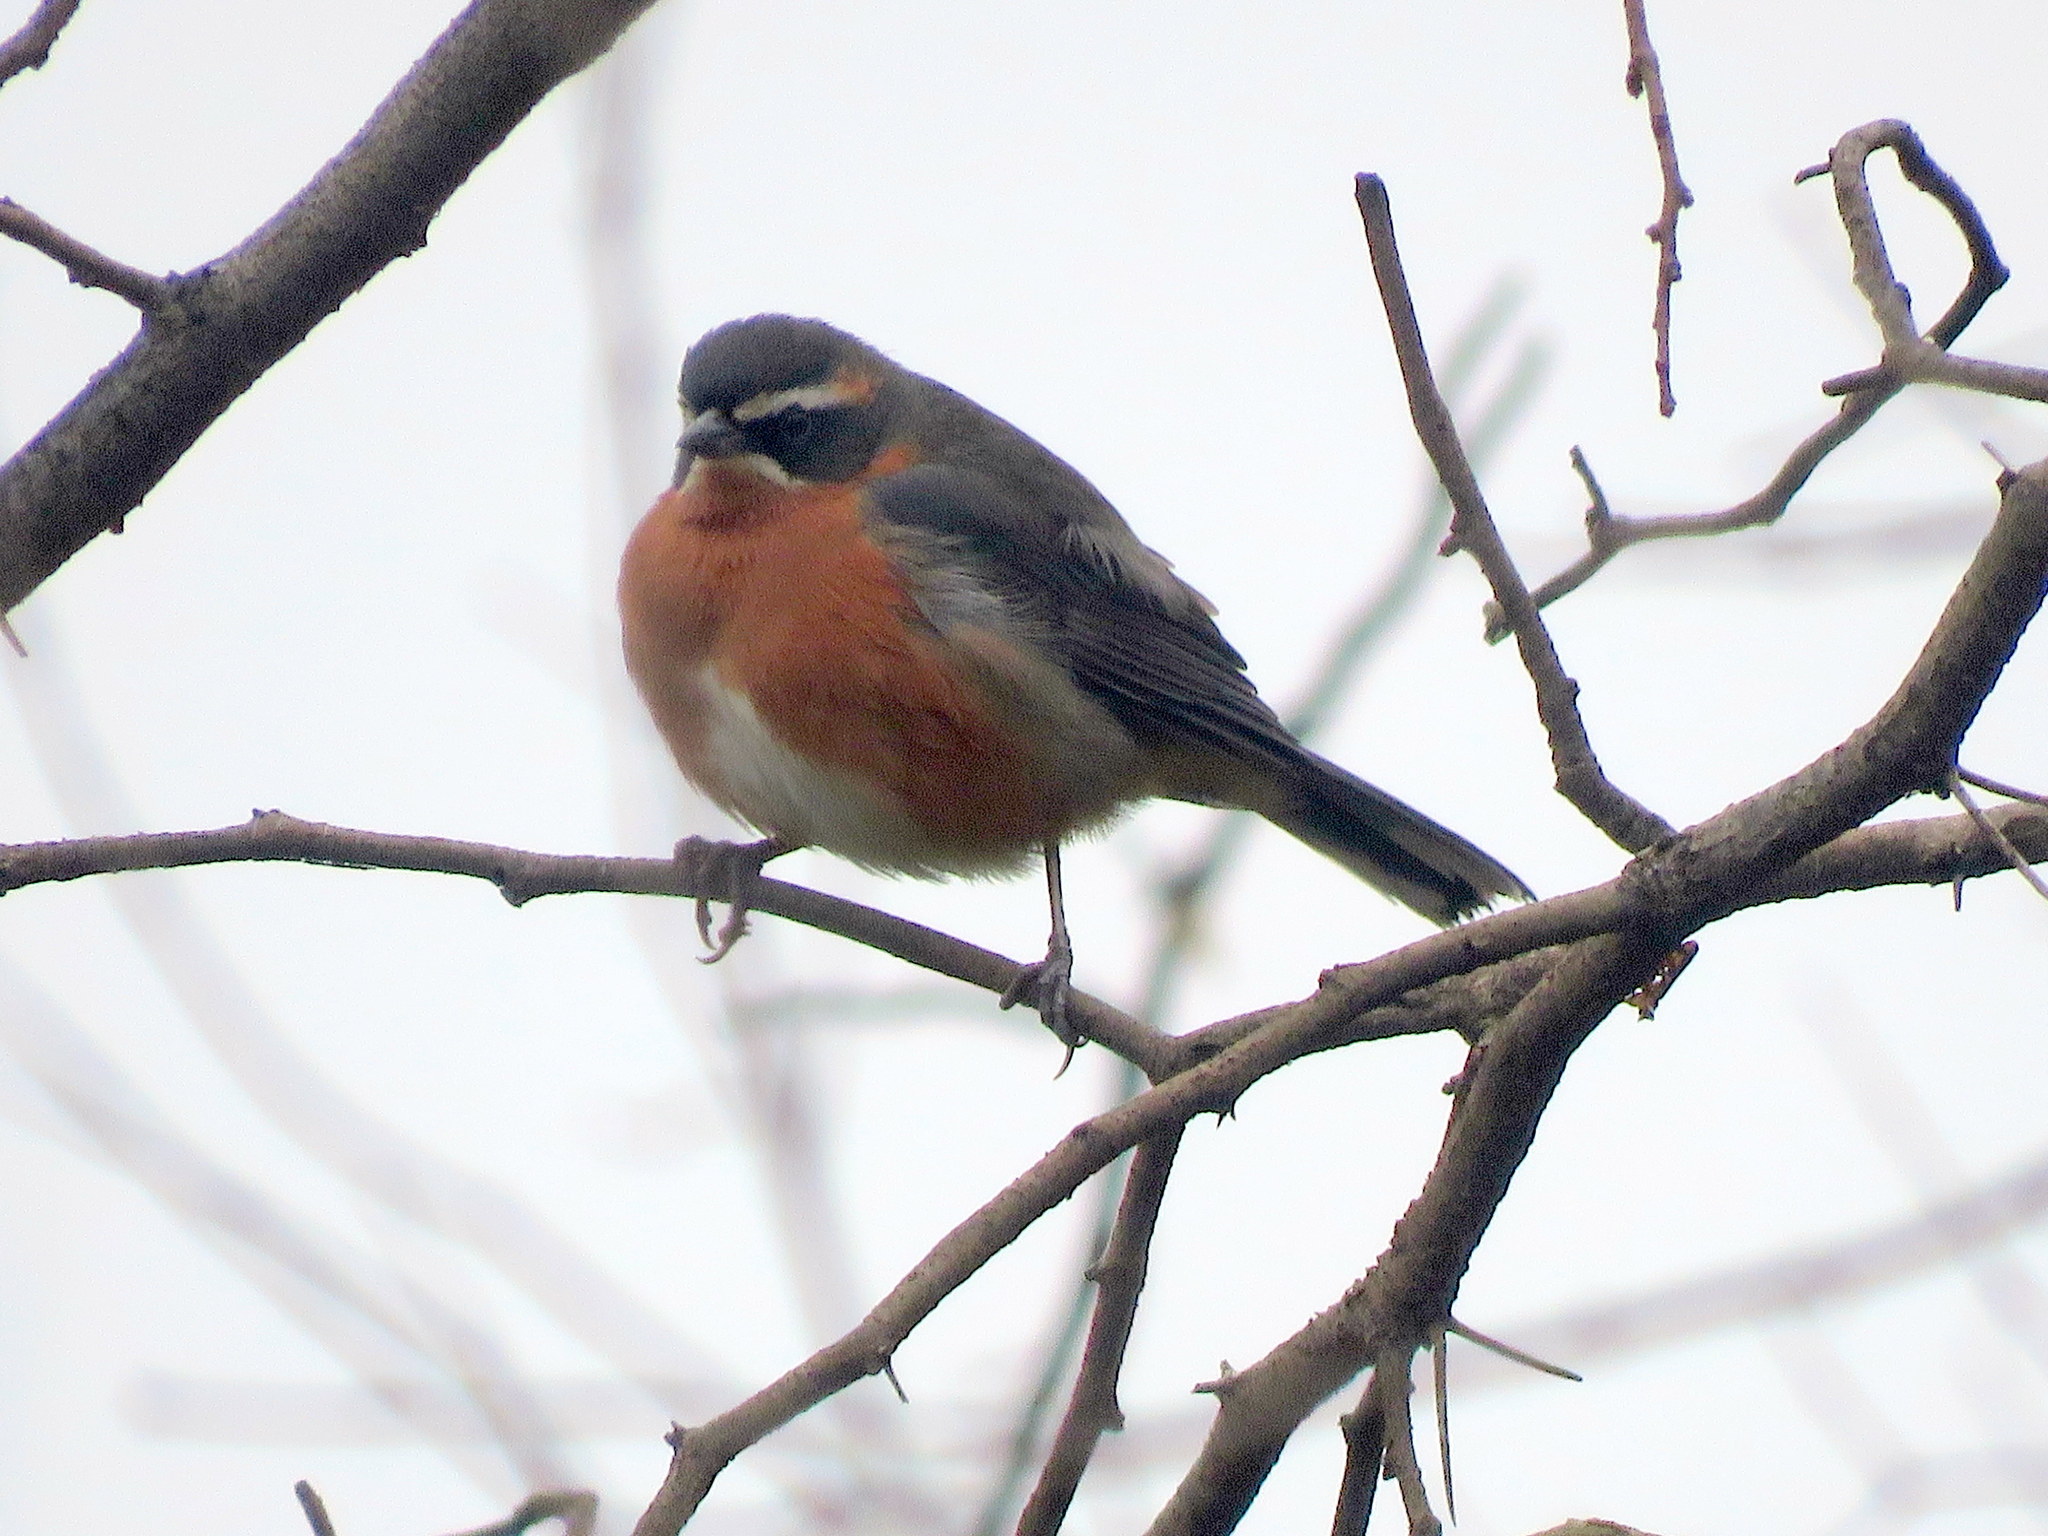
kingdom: Animalia
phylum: Chordata
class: Aves
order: Passeriformes
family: Thraupidae
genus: Poospiza
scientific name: Poospiza nigrorufa
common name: Black-and-rufous warbling finch
